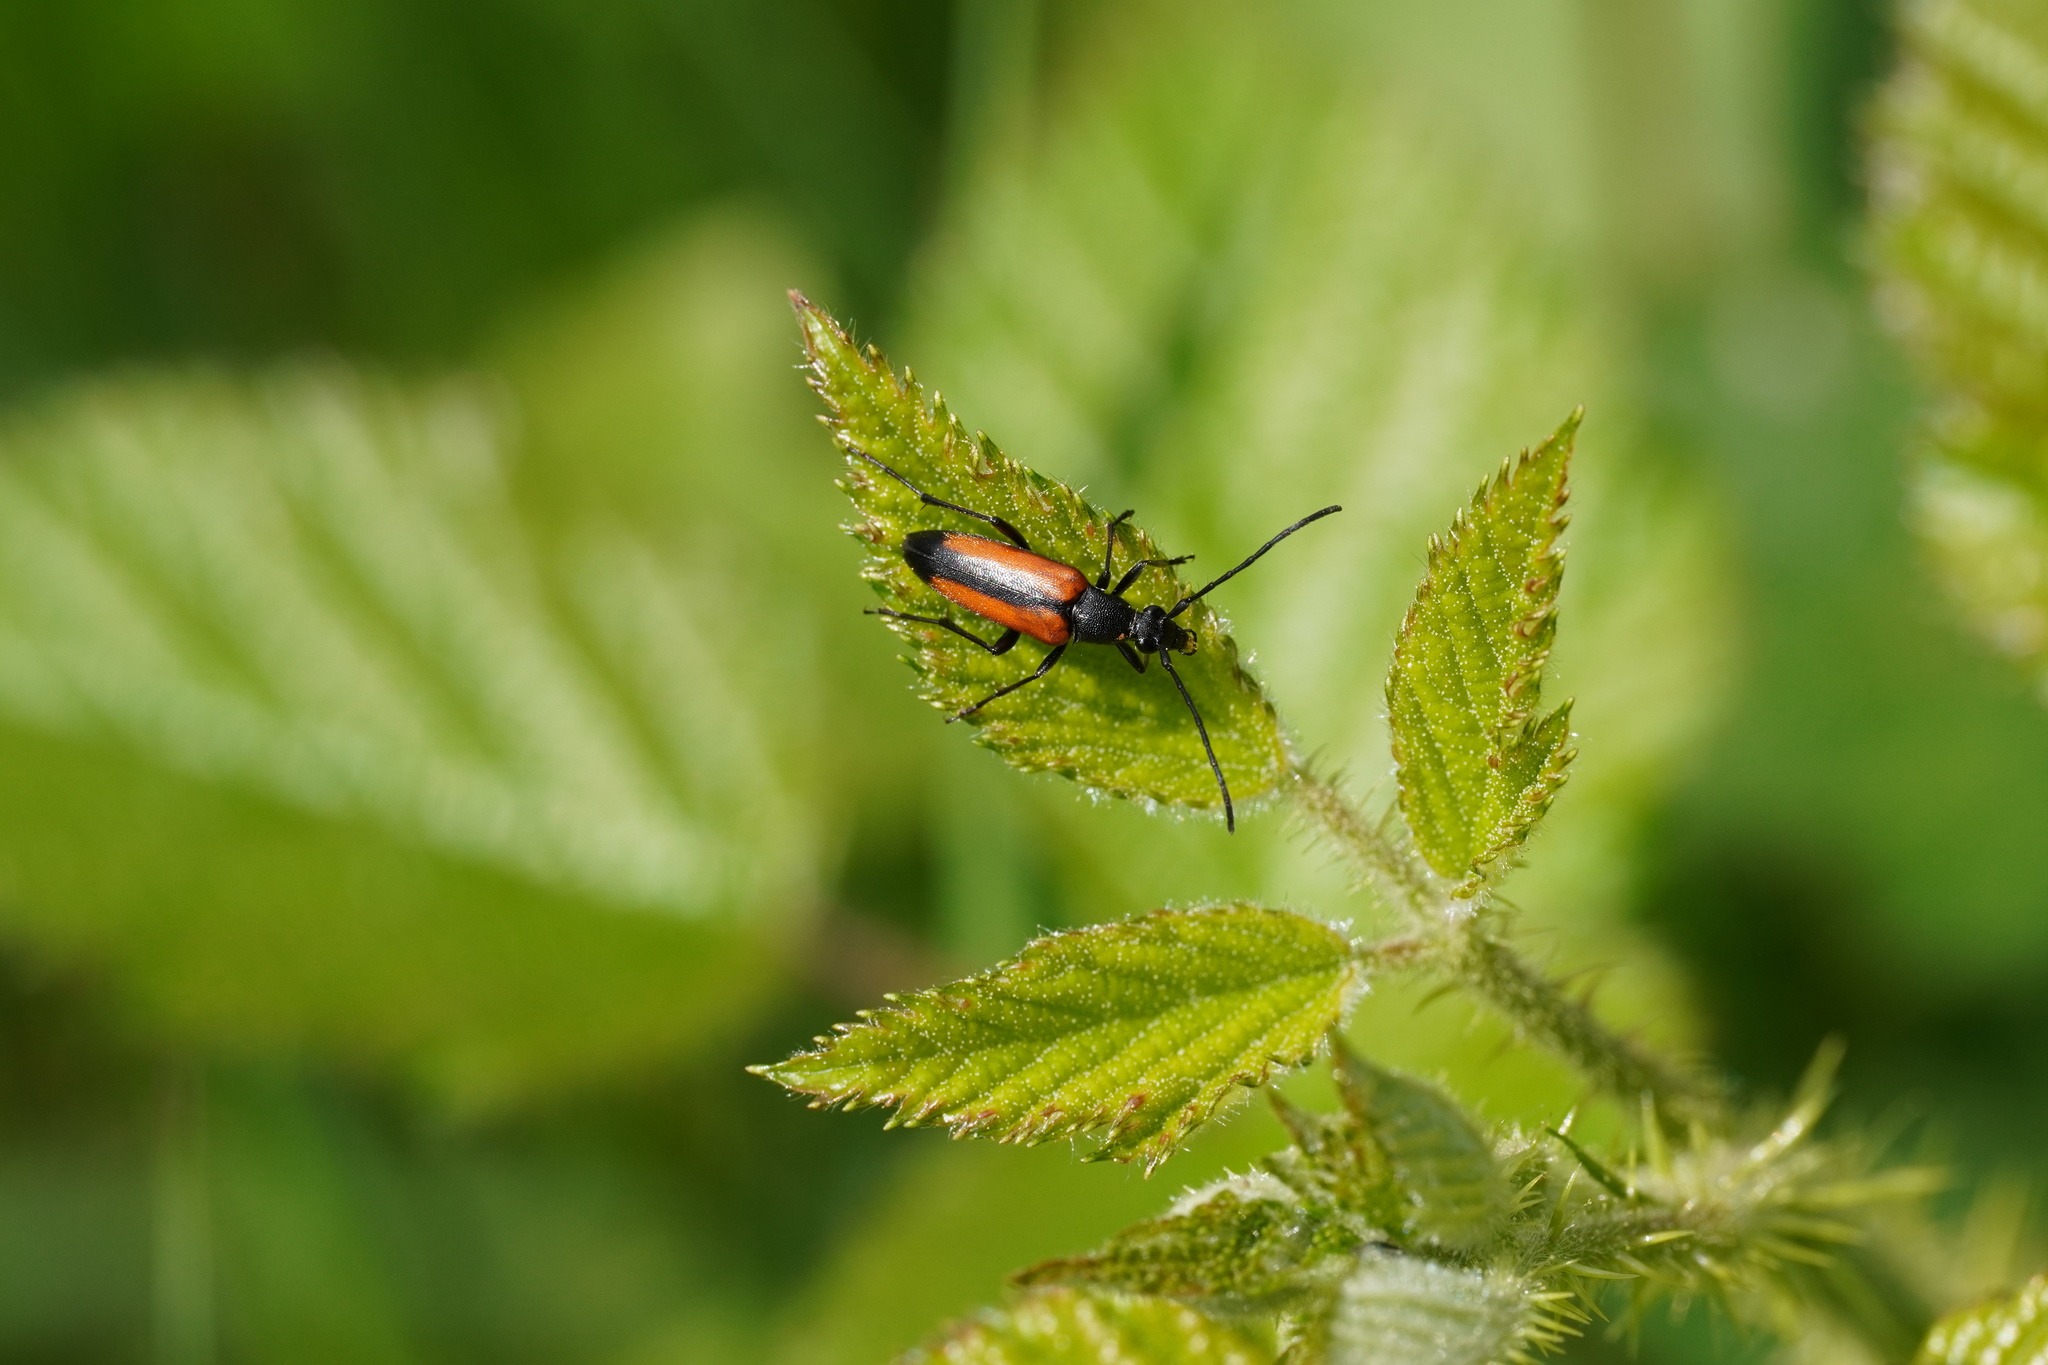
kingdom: Animalia
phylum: Arthropoda
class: Insecta
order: Coleoptera
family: Cerambycidae
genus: Stenurella
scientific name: Stenurella melanura
